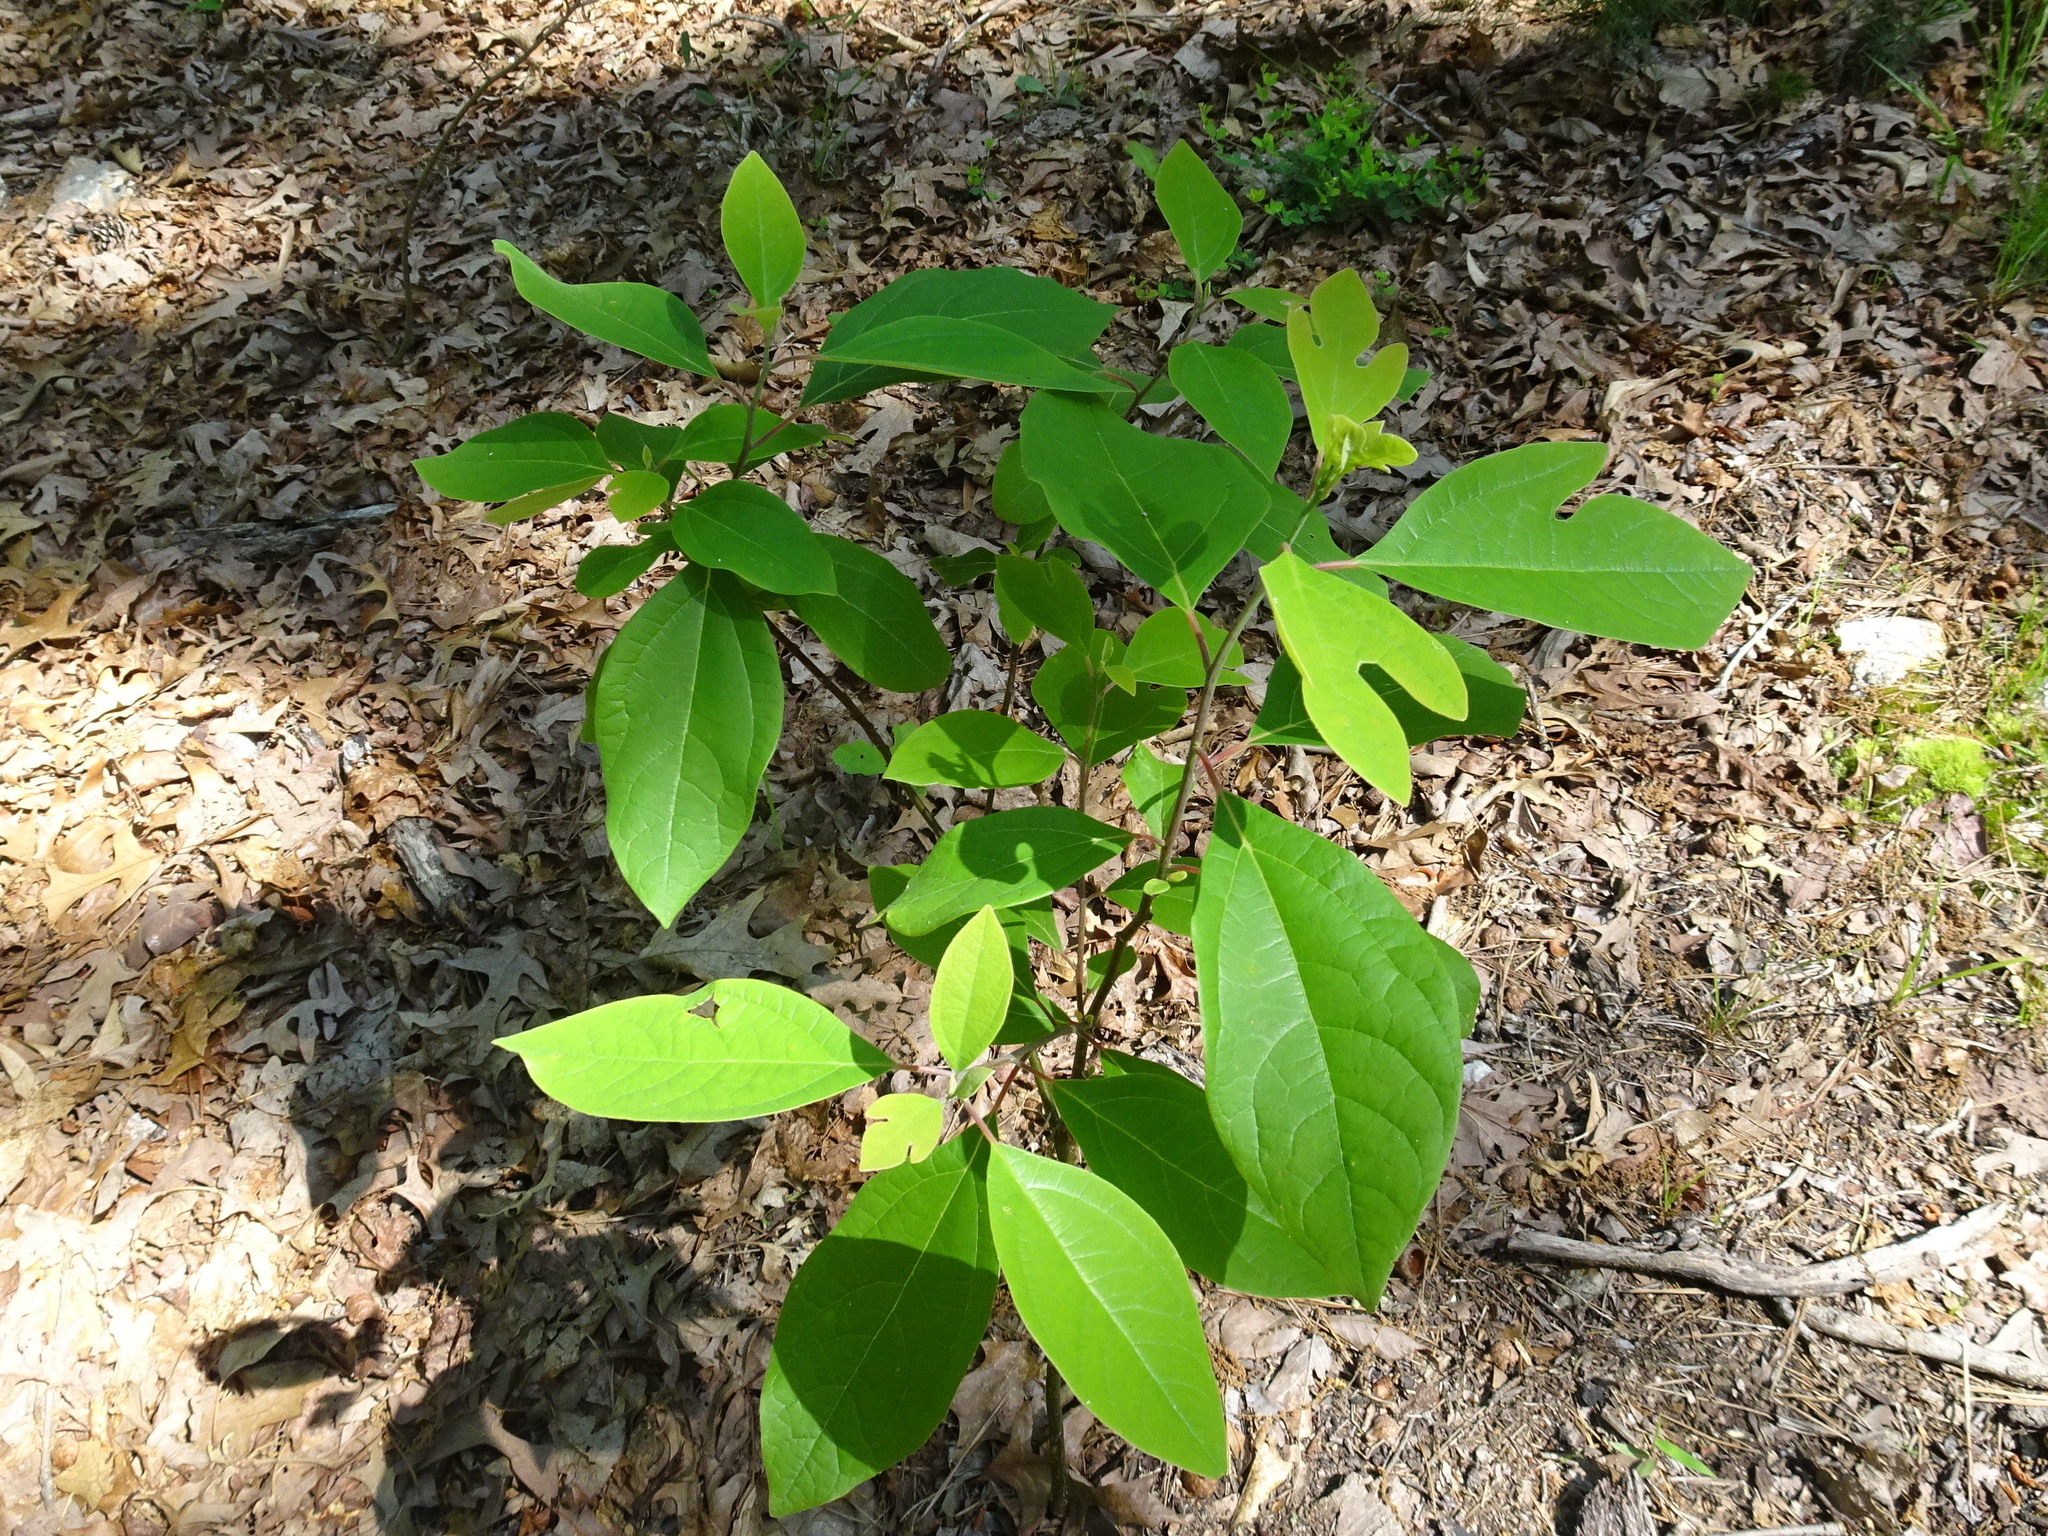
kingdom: Plantae
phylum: Tracheophyta
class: Magnoliopsida
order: Laurales
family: Lauraceae
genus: Sassafras
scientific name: Sassafras albidum
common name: Sassafras
